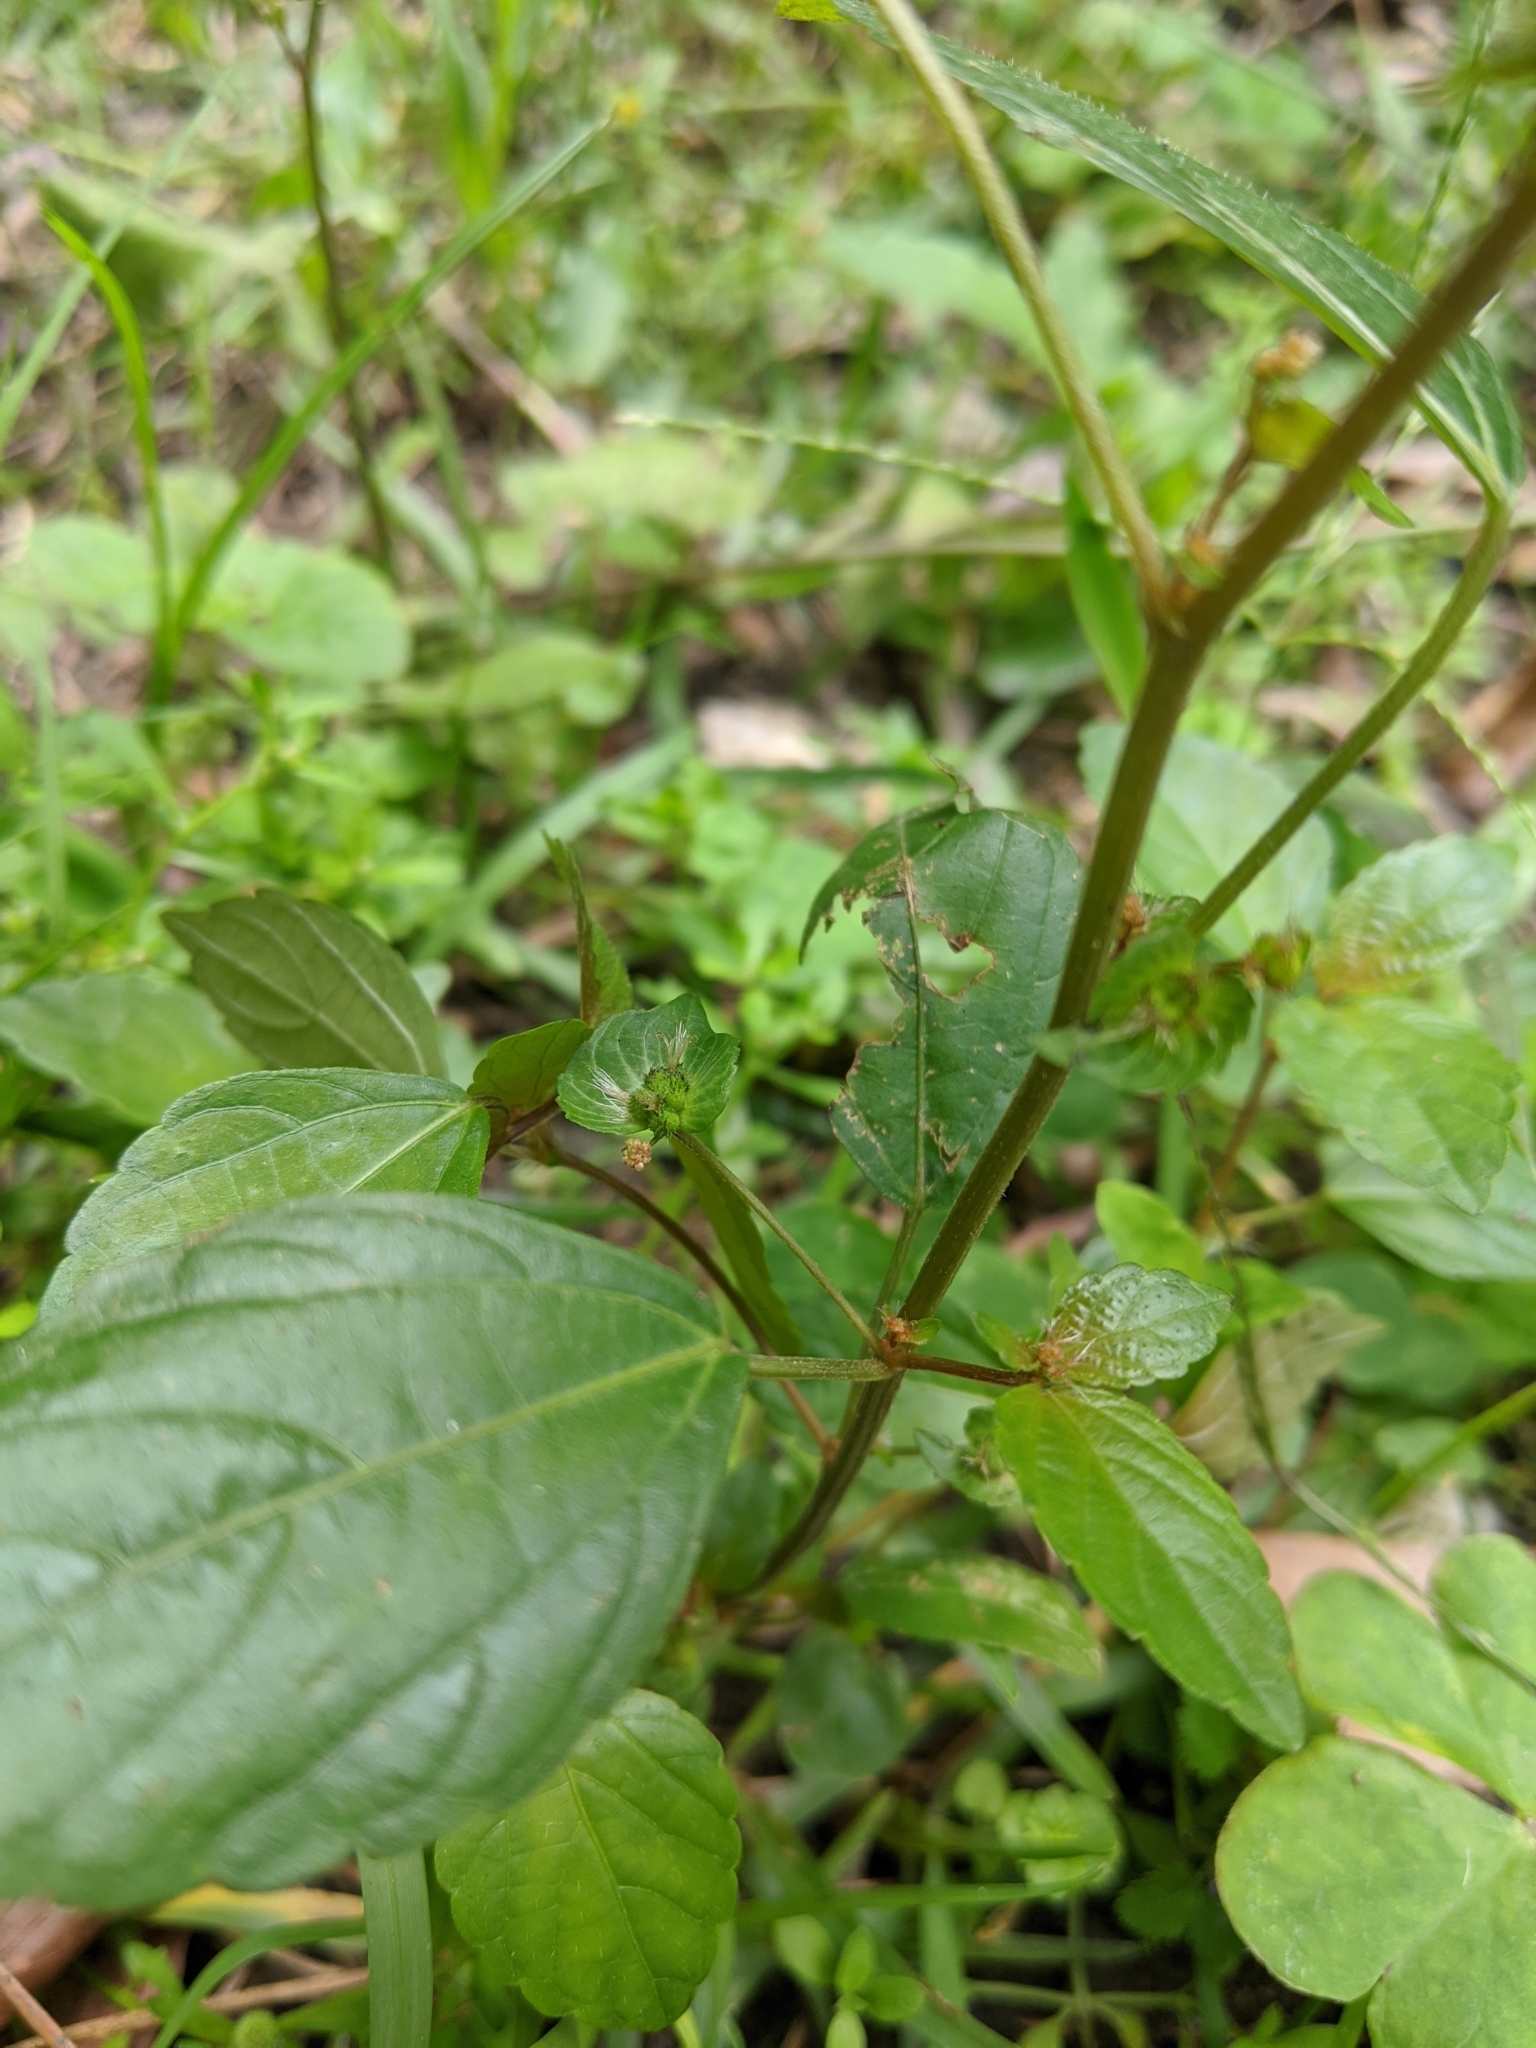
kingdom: Plantae
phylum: Tracheophyta
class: Magnoliopsida
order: Malpighiales
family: Euphorbiaceae
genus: Acalypha
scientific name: Acalypha australis
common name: Asian copperleaf
